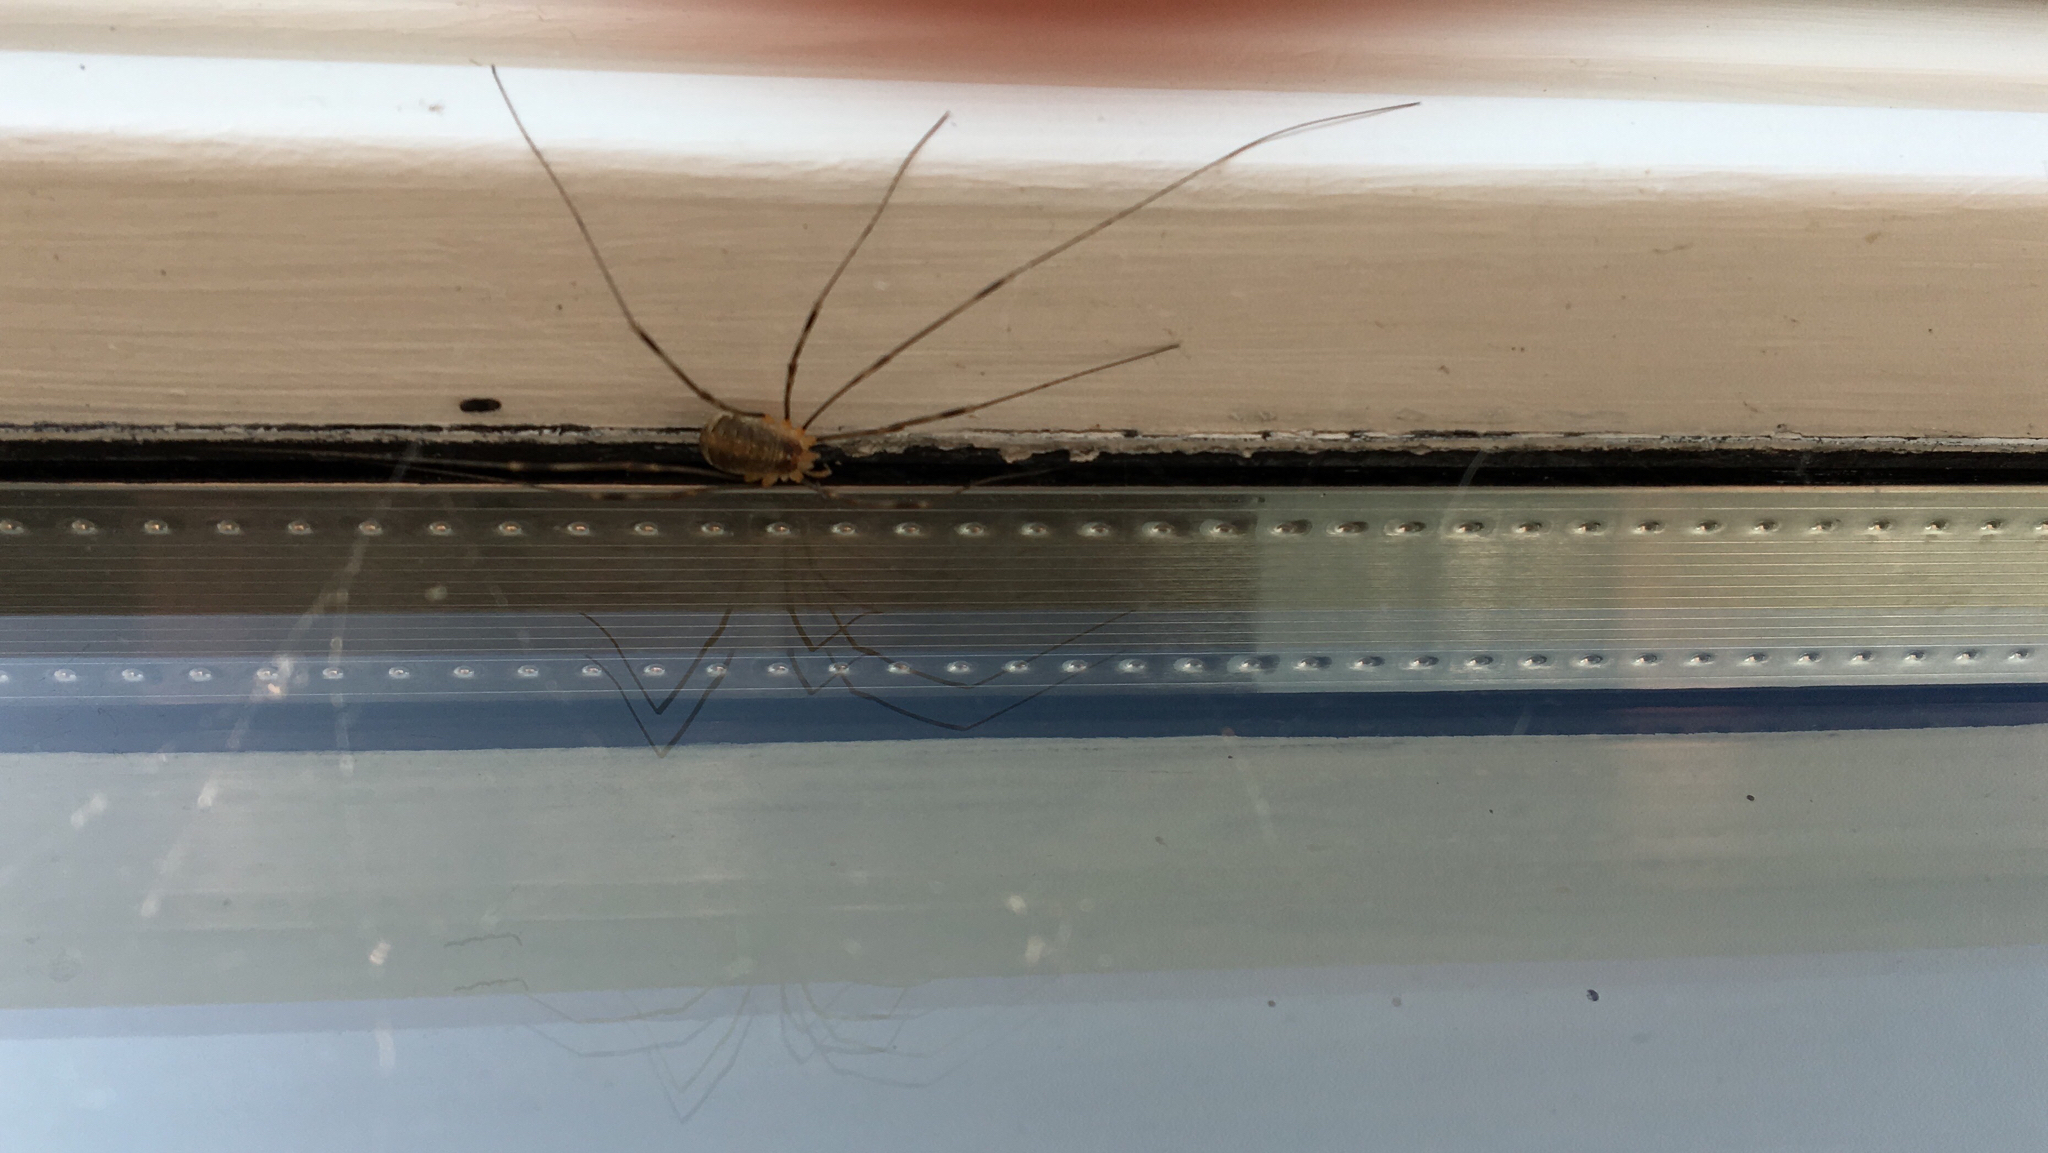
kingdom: Animalia
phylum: Arthropoda
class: Arachnida
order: Opiliones
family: Phalangiidae
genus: Opilio
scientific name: Opilio canestrinii
